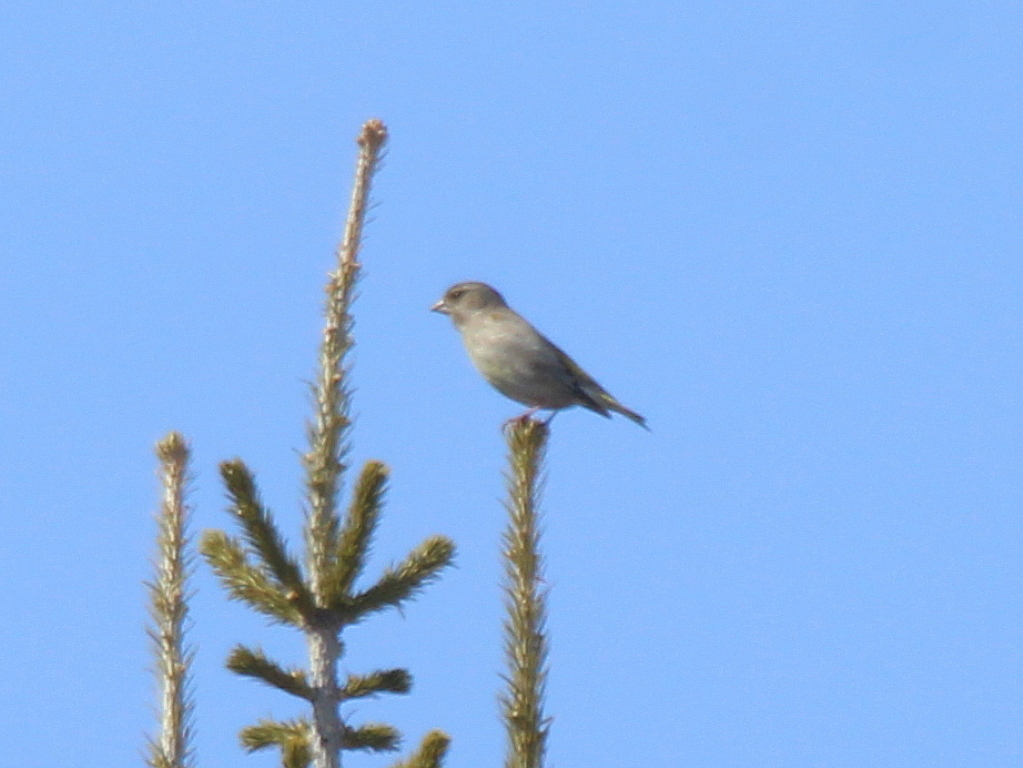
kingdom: Plantae
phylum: Tracheophyta
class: Liliopsida
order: Poales
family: Poaceae
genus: Chloris
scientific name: Chloris chloris
